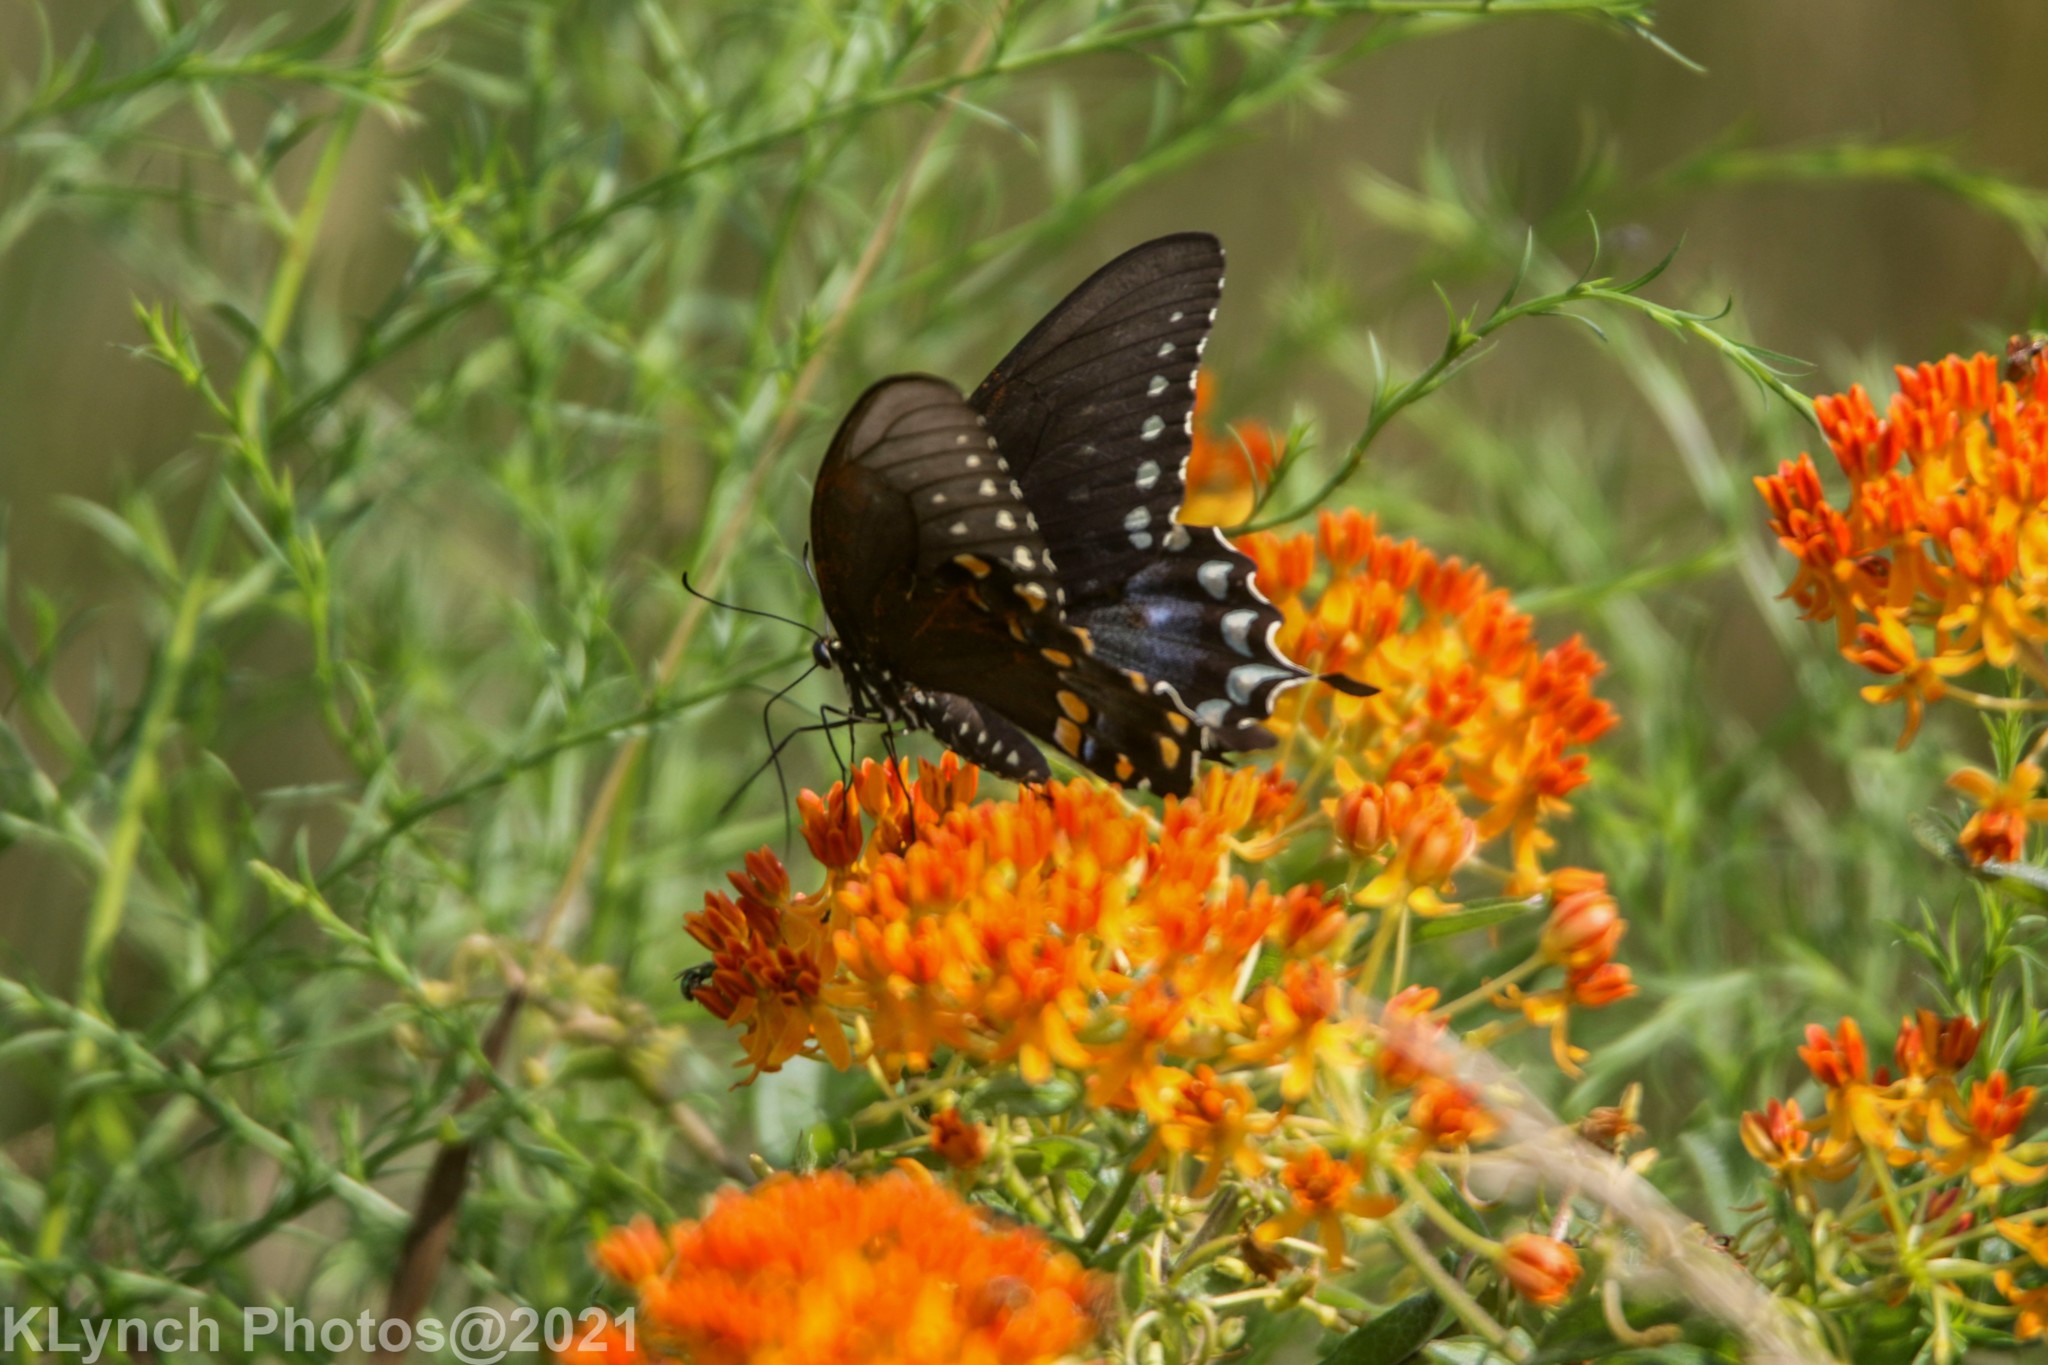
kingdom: Animalia
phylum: Arthropoda
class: Insecta
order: Lepidoptera
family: Papilionidae
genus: Papilio
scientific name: Papilio troilus
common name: Spicebush swallowtail
